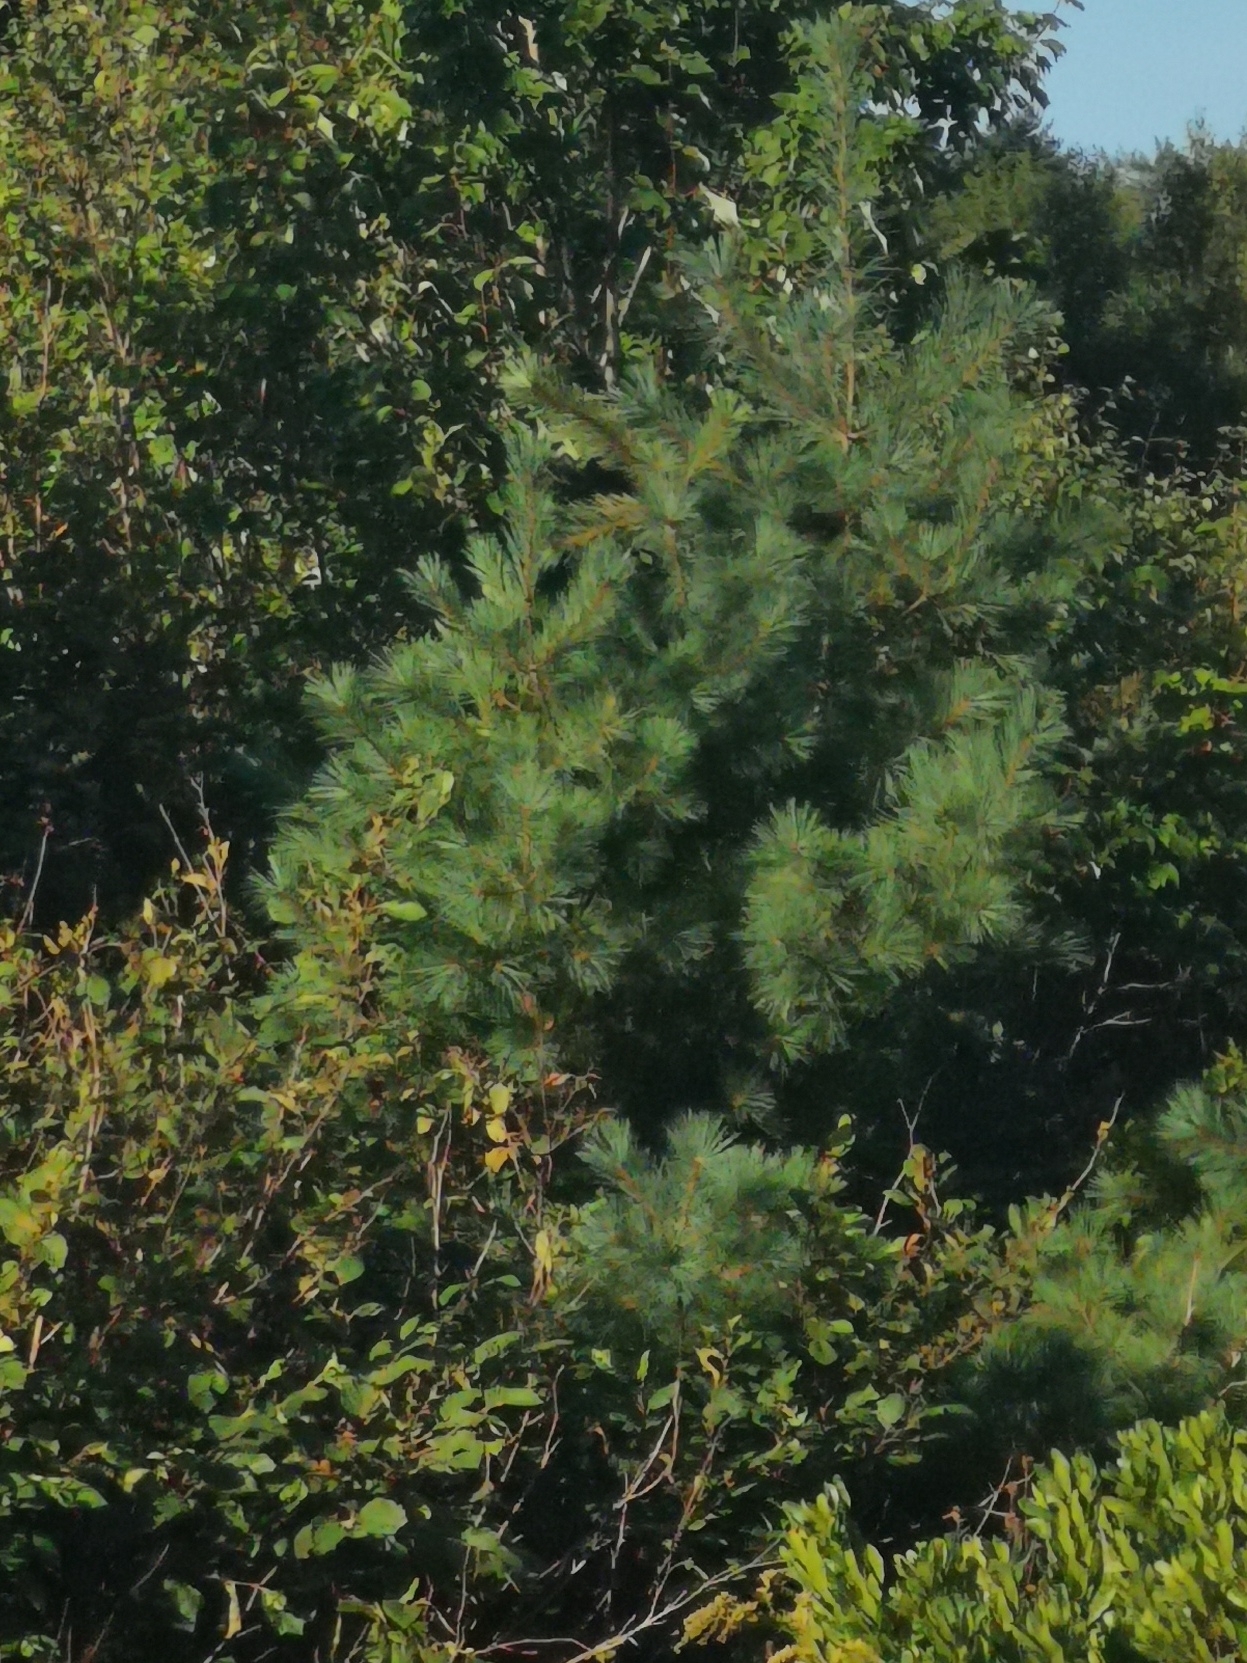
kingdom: Plantae
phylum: Tracheophyta
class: Pinopsida
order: Pinales
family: Pinaceae
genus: Pinus
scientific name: Pinus strobus
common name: Weymouth pine
